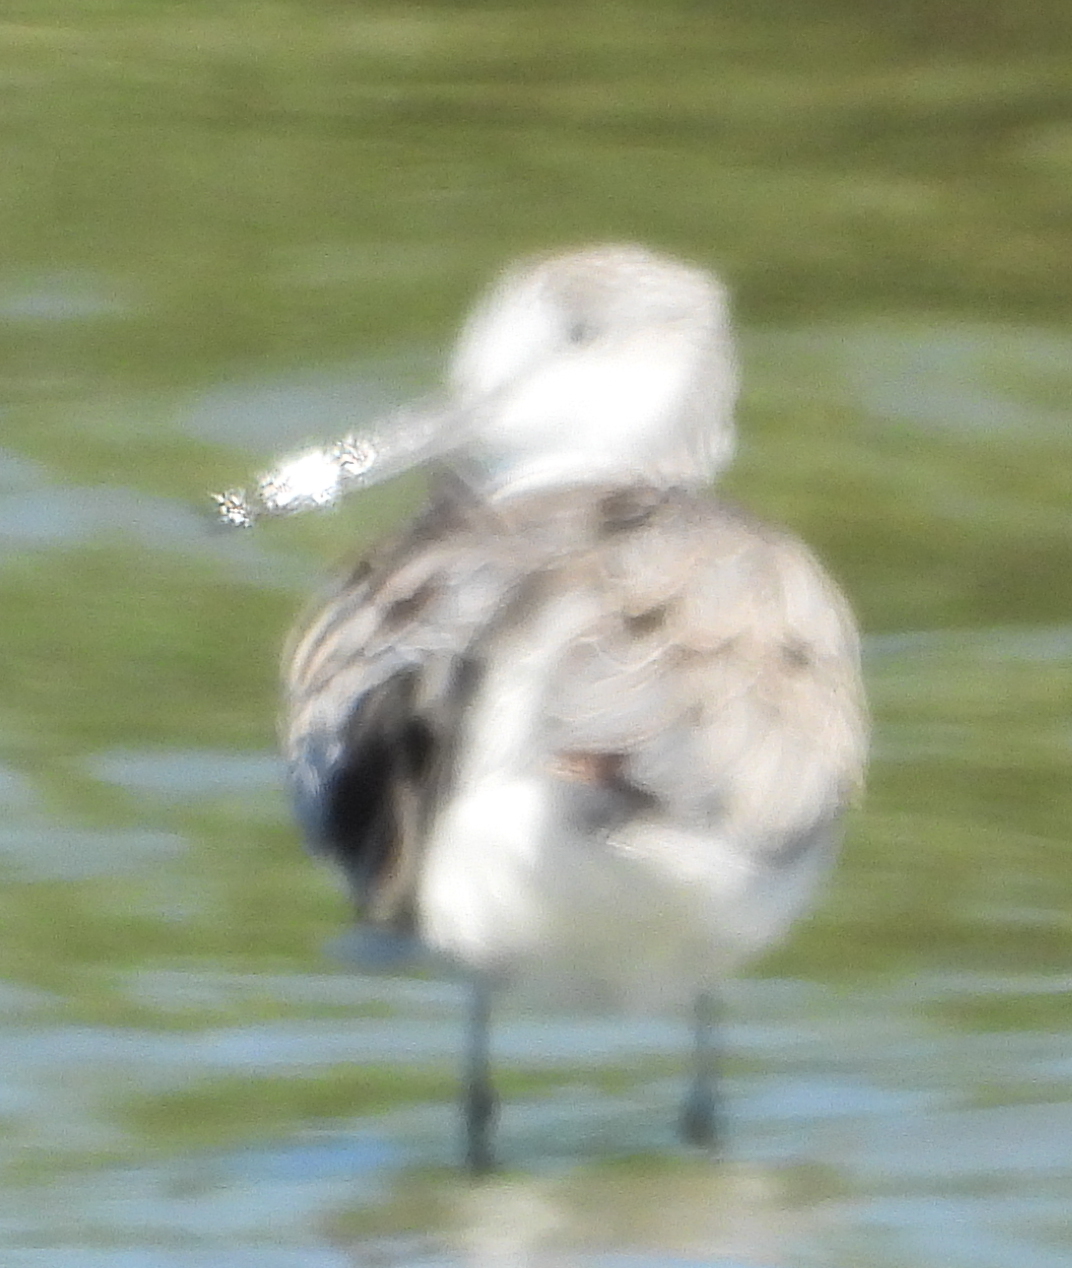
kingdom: Animalia
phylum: Chordata
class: Aves
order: Charadriiformes
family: Scolopacidae
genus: Tringa
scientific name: Tringa nebularia
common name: Common greenshank
